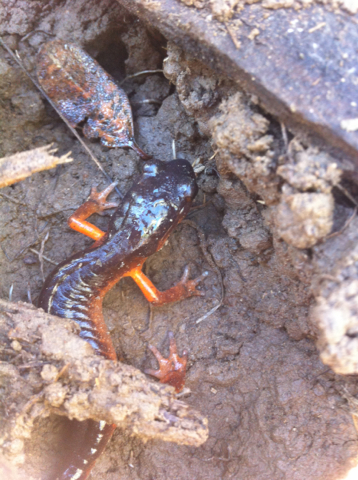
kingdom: Animalia
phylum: Chordata
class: Amphibia
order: Caudata
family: Plethodontidae
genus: Ensatina
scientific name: Ensatina eschscholtzii
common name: Ensatina
